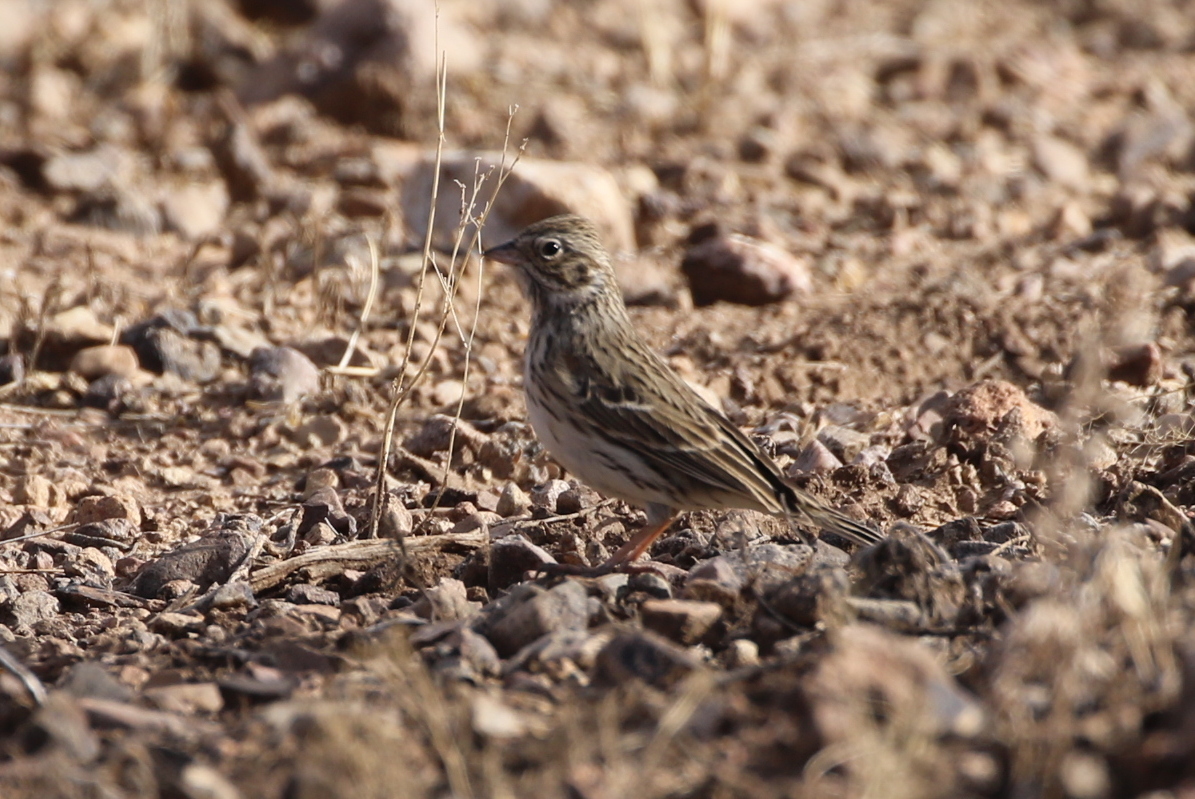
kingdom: Animalia
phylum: Chordata
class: Aves
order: Passeriformes
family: Passerellidae
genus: Pooecetes
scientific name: Pooecetes gramineus
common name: Vesper sparrow
